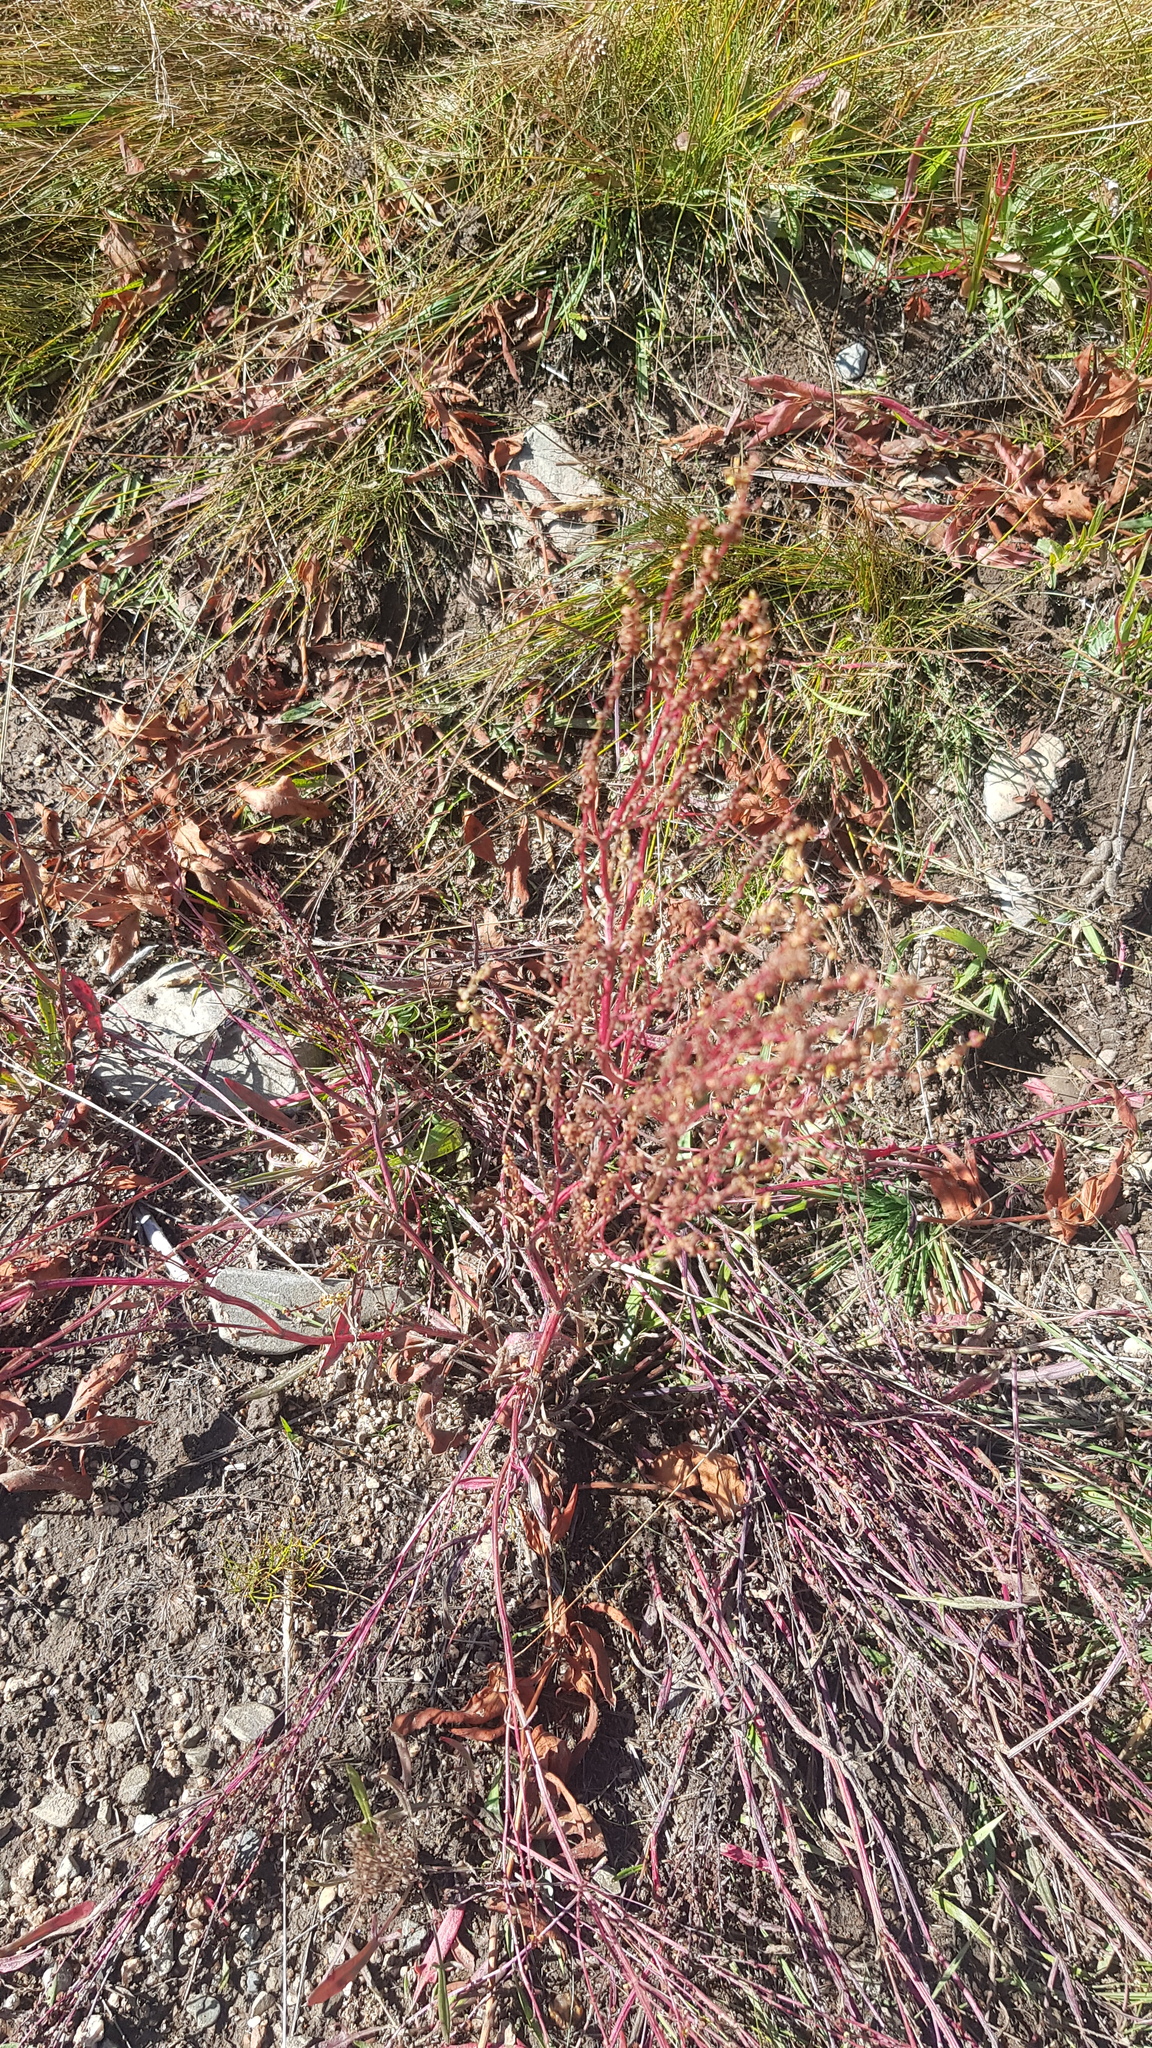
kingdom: Plantae
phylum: Tracheophyta
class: Magnoliopsida
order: Caryophyllales
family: Polygonaceae
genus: Rumex
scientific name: Rumex acetosella
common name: Common sheep sorrel
